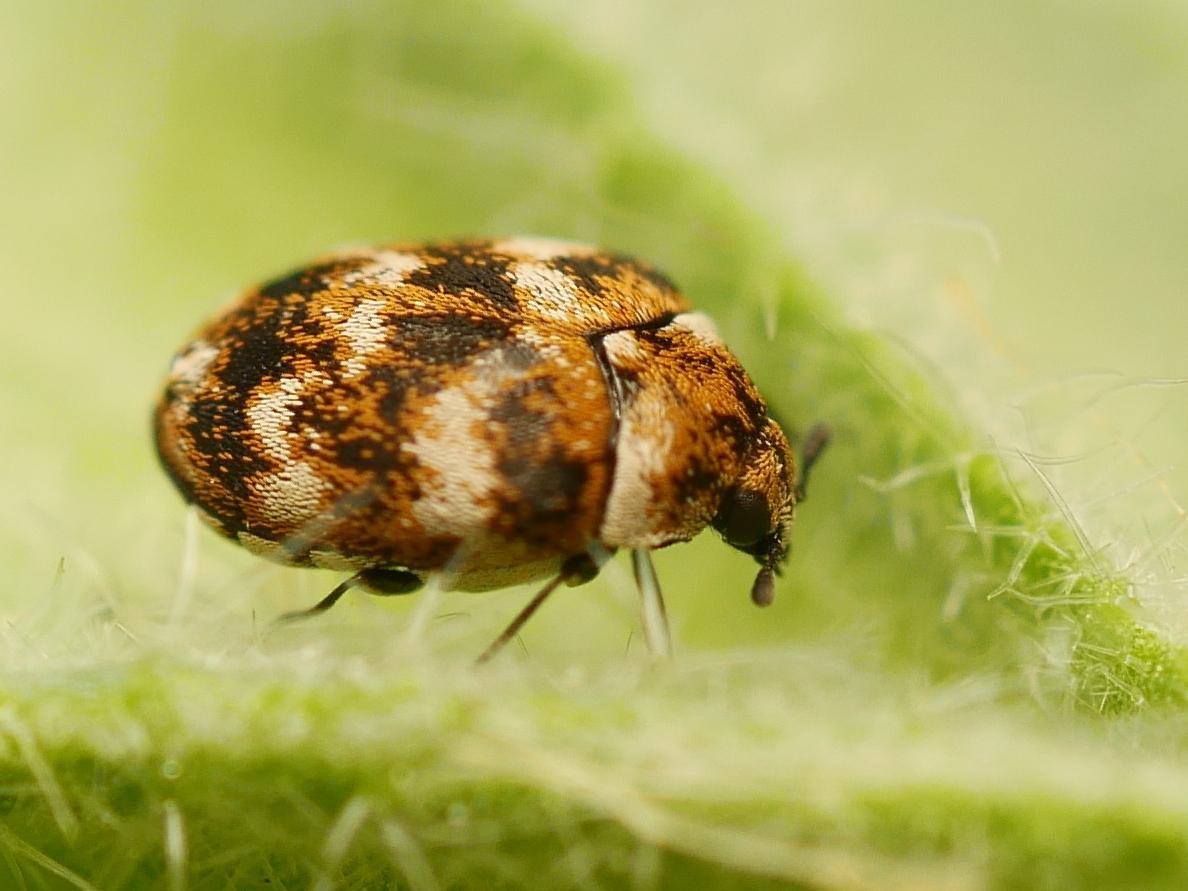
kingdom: Animalia
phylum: Arthropoda
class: Insecta
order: Coleoptera
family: Dermestidae
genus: Anthrenus
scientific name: Anthrenus verbasci
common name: Varied carpet beetle
